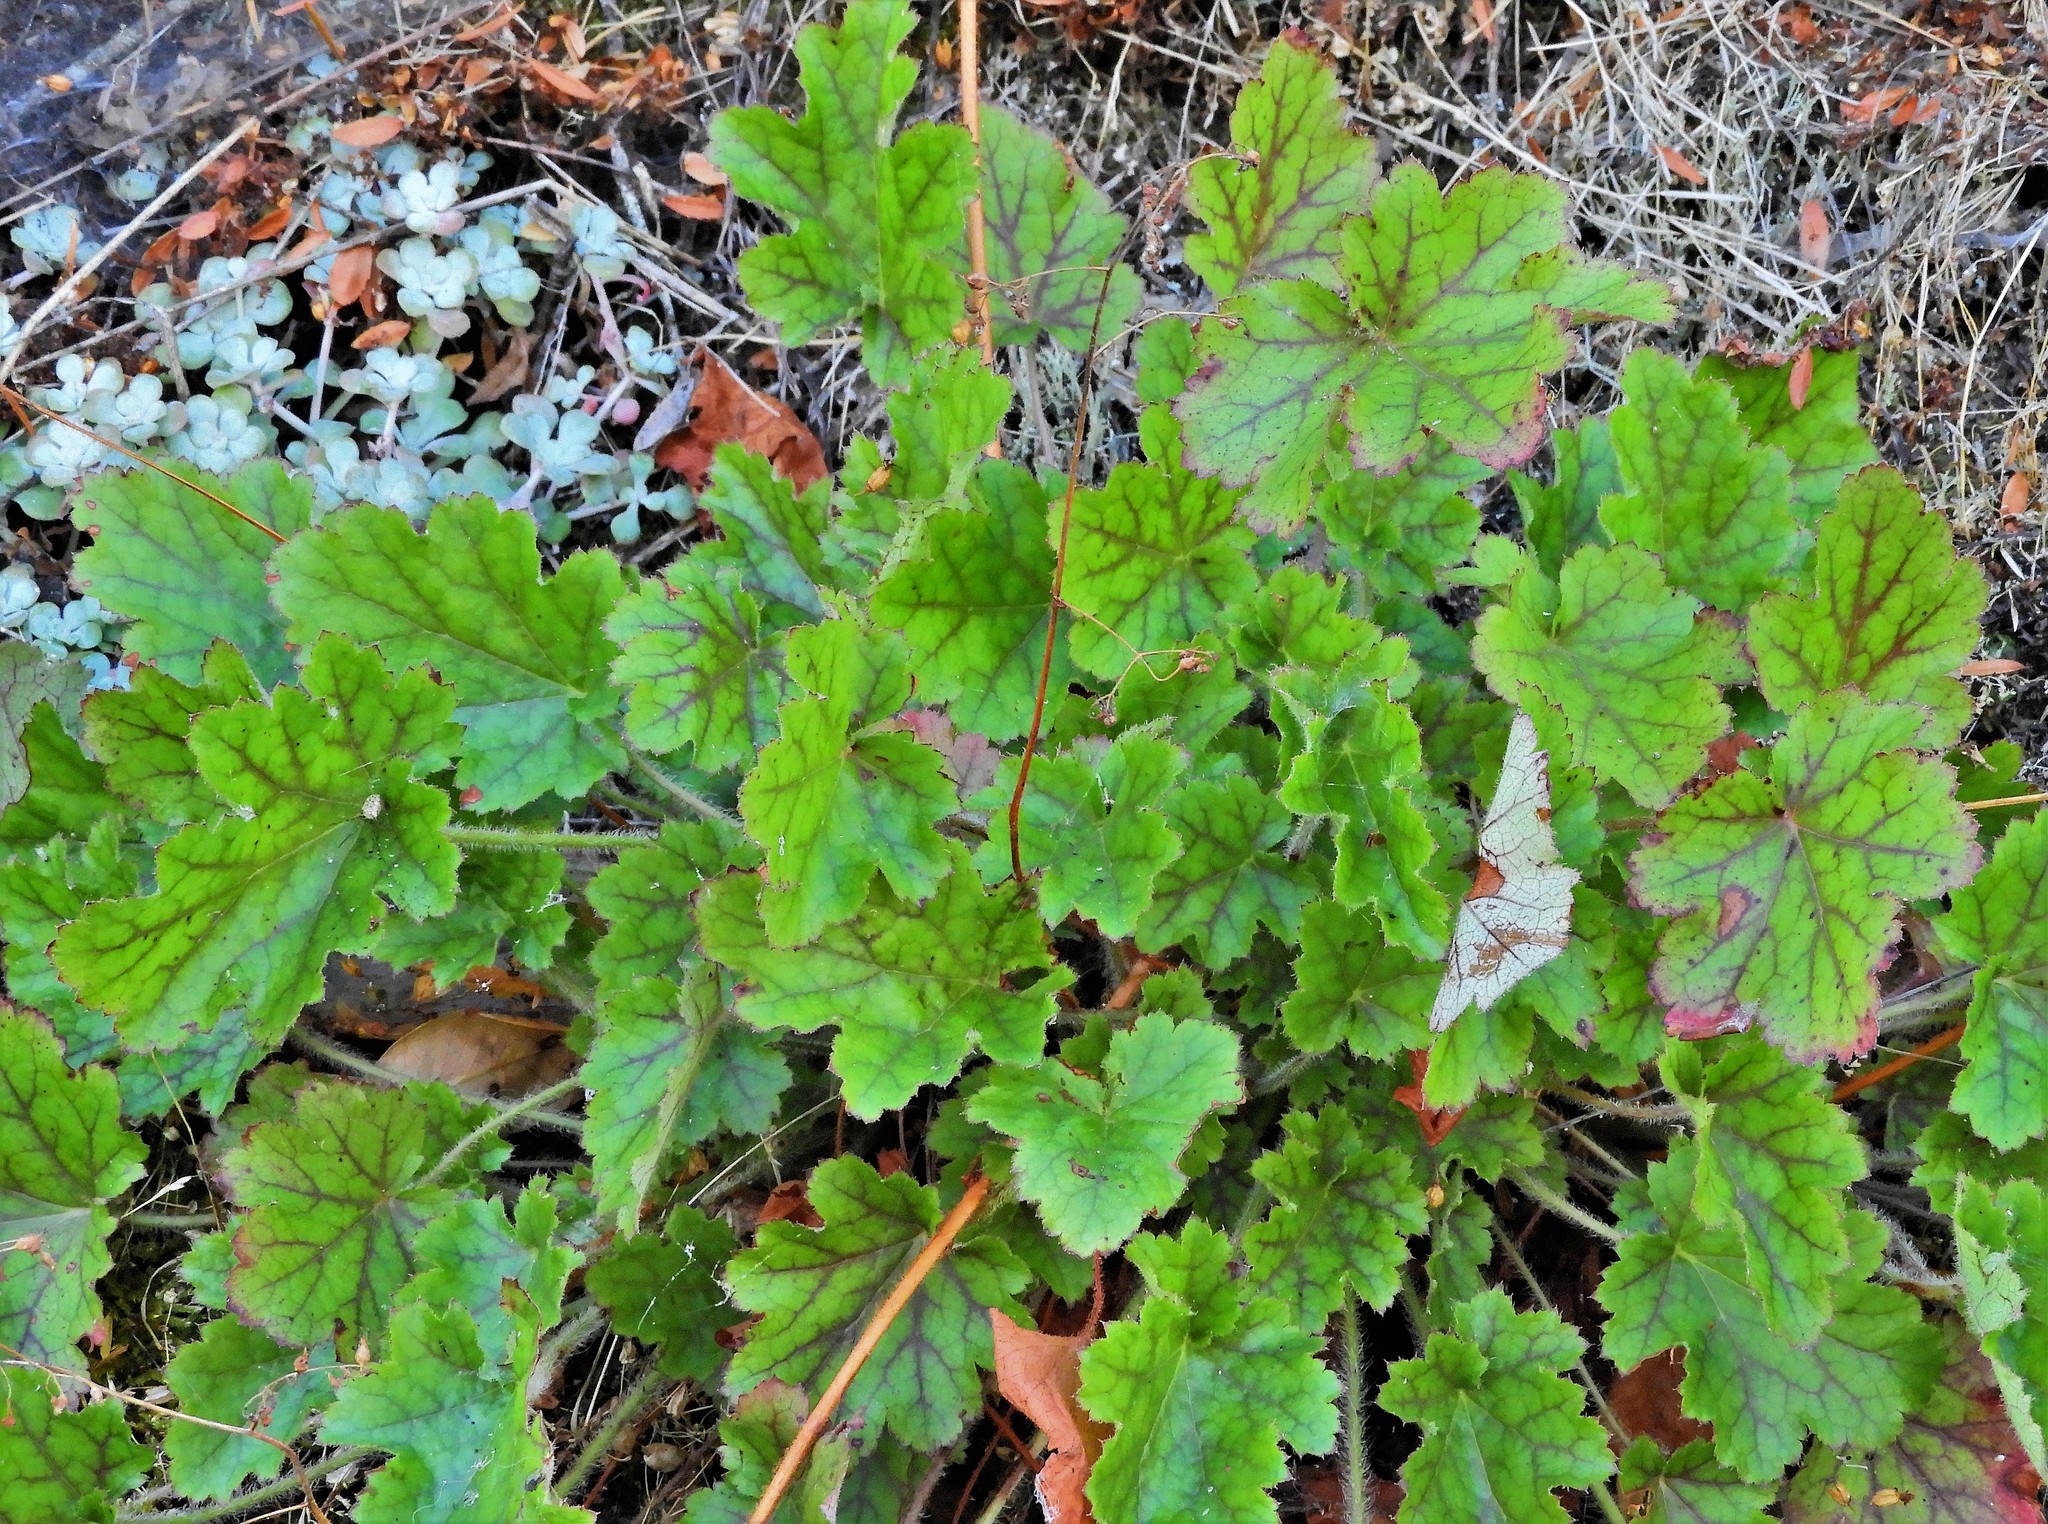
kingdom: Plantae
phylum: Tracheophyta
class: Magnoliopsida
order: Saxifragales
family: Saxifragaceae
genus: Heuchera
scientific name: Heuchera micrantha
